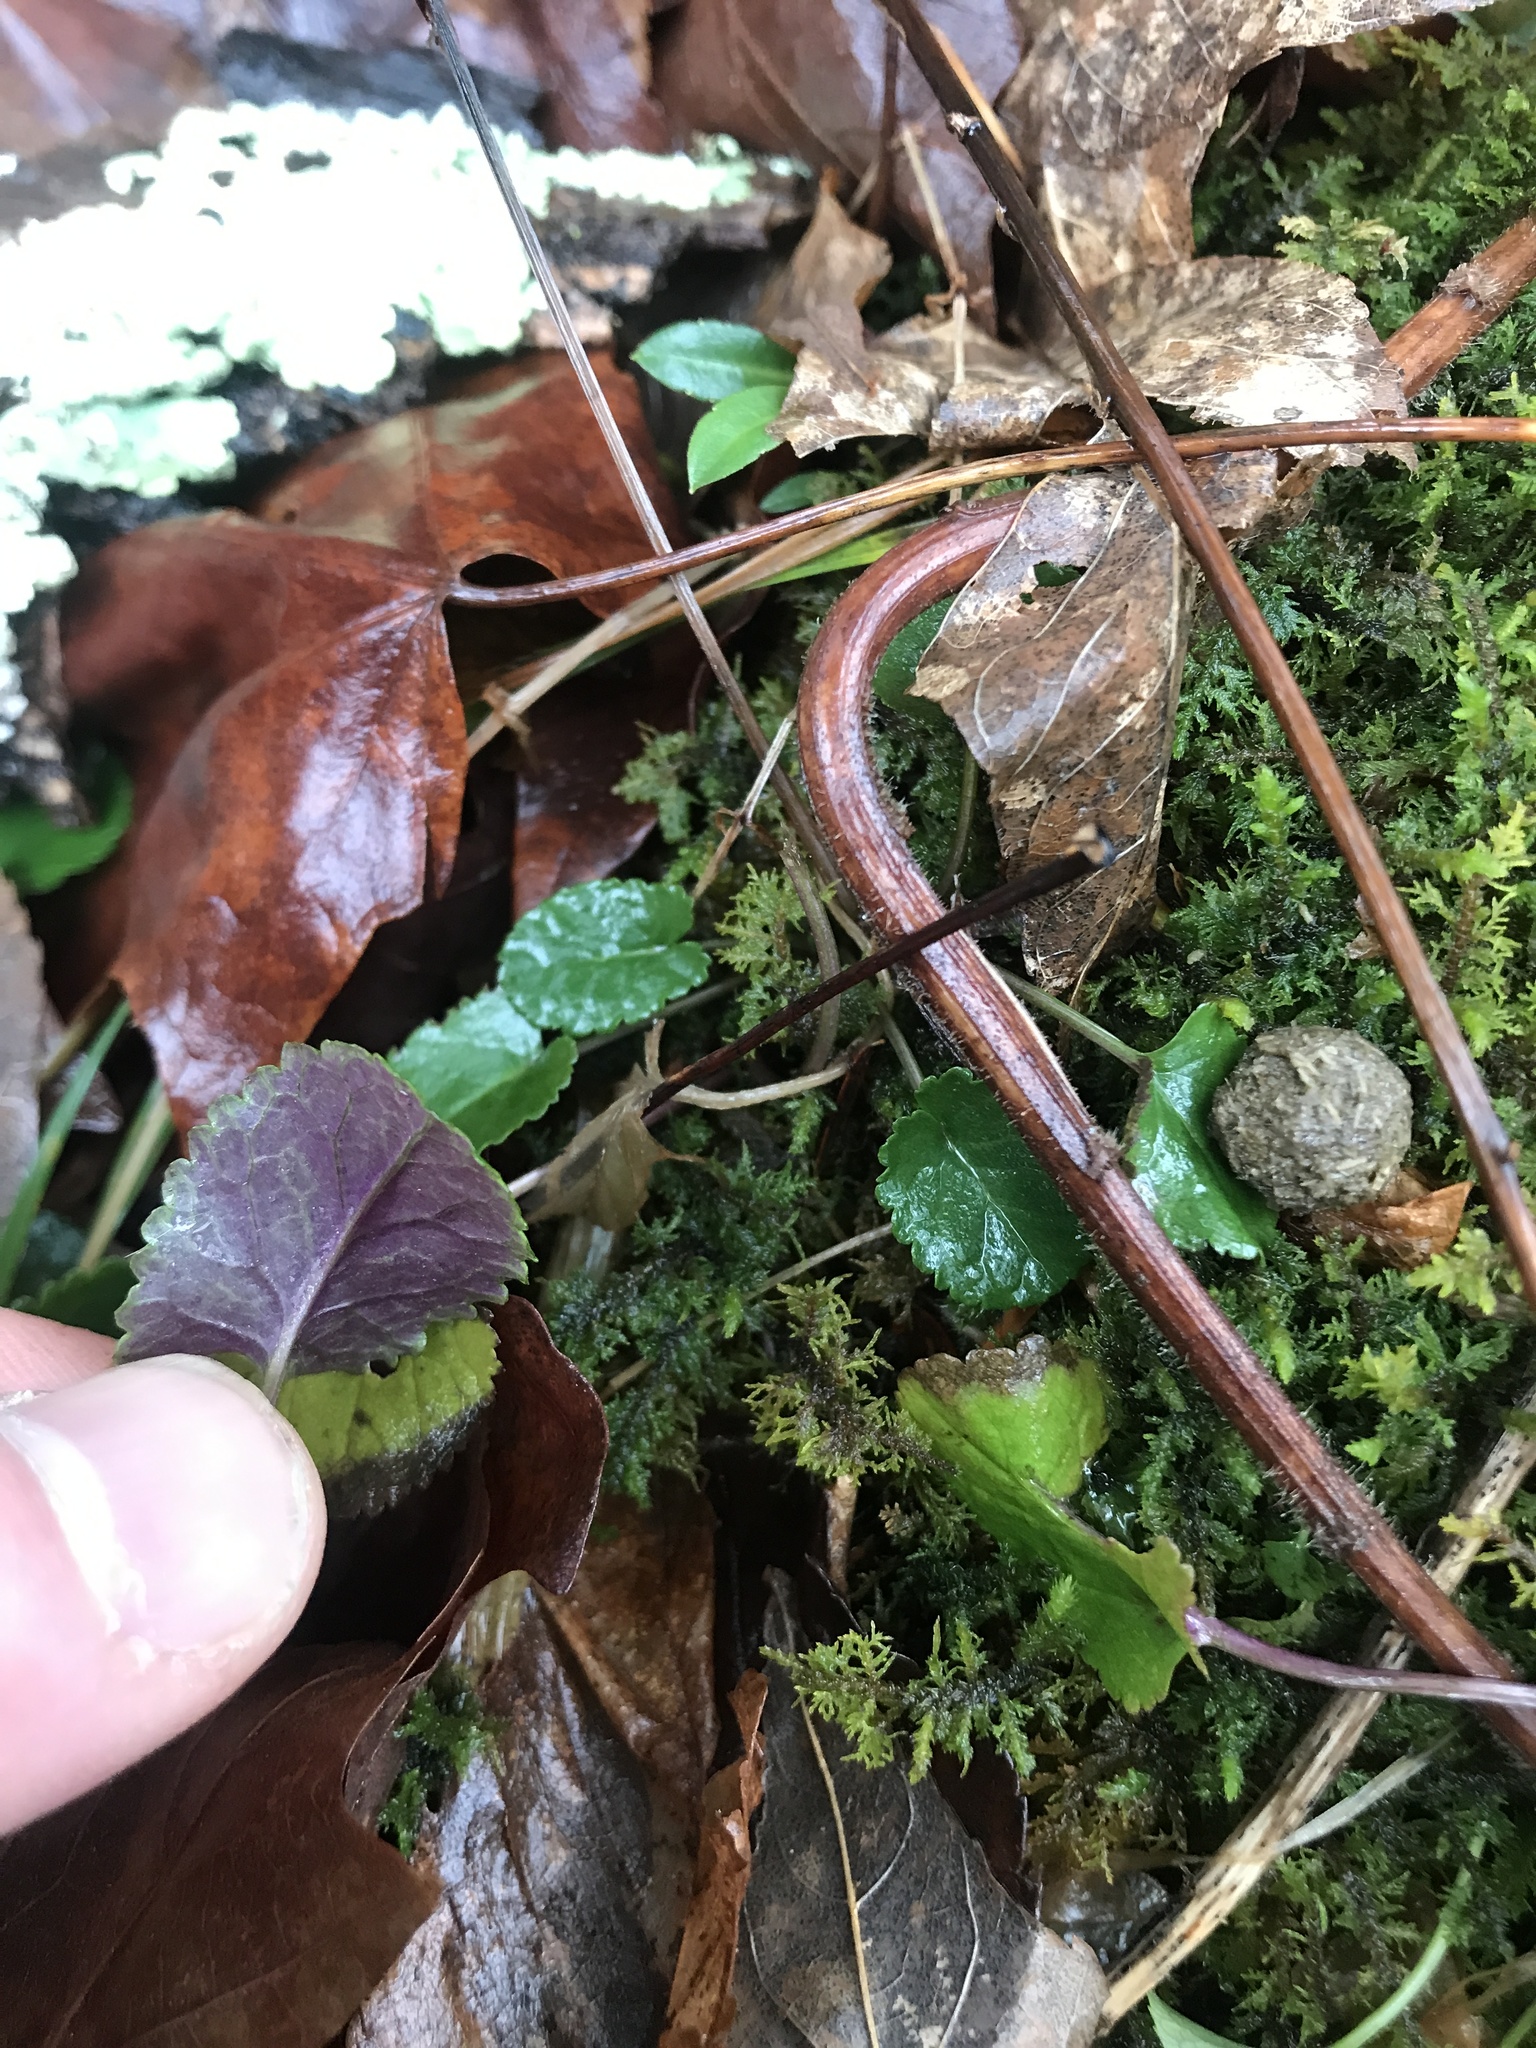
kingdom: Plantae
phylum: Tracheophyta
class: Magnoliopsida
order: Asterales
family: Asteraceae
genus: Packera
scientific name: Packera aurea
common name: Golden groundsel
